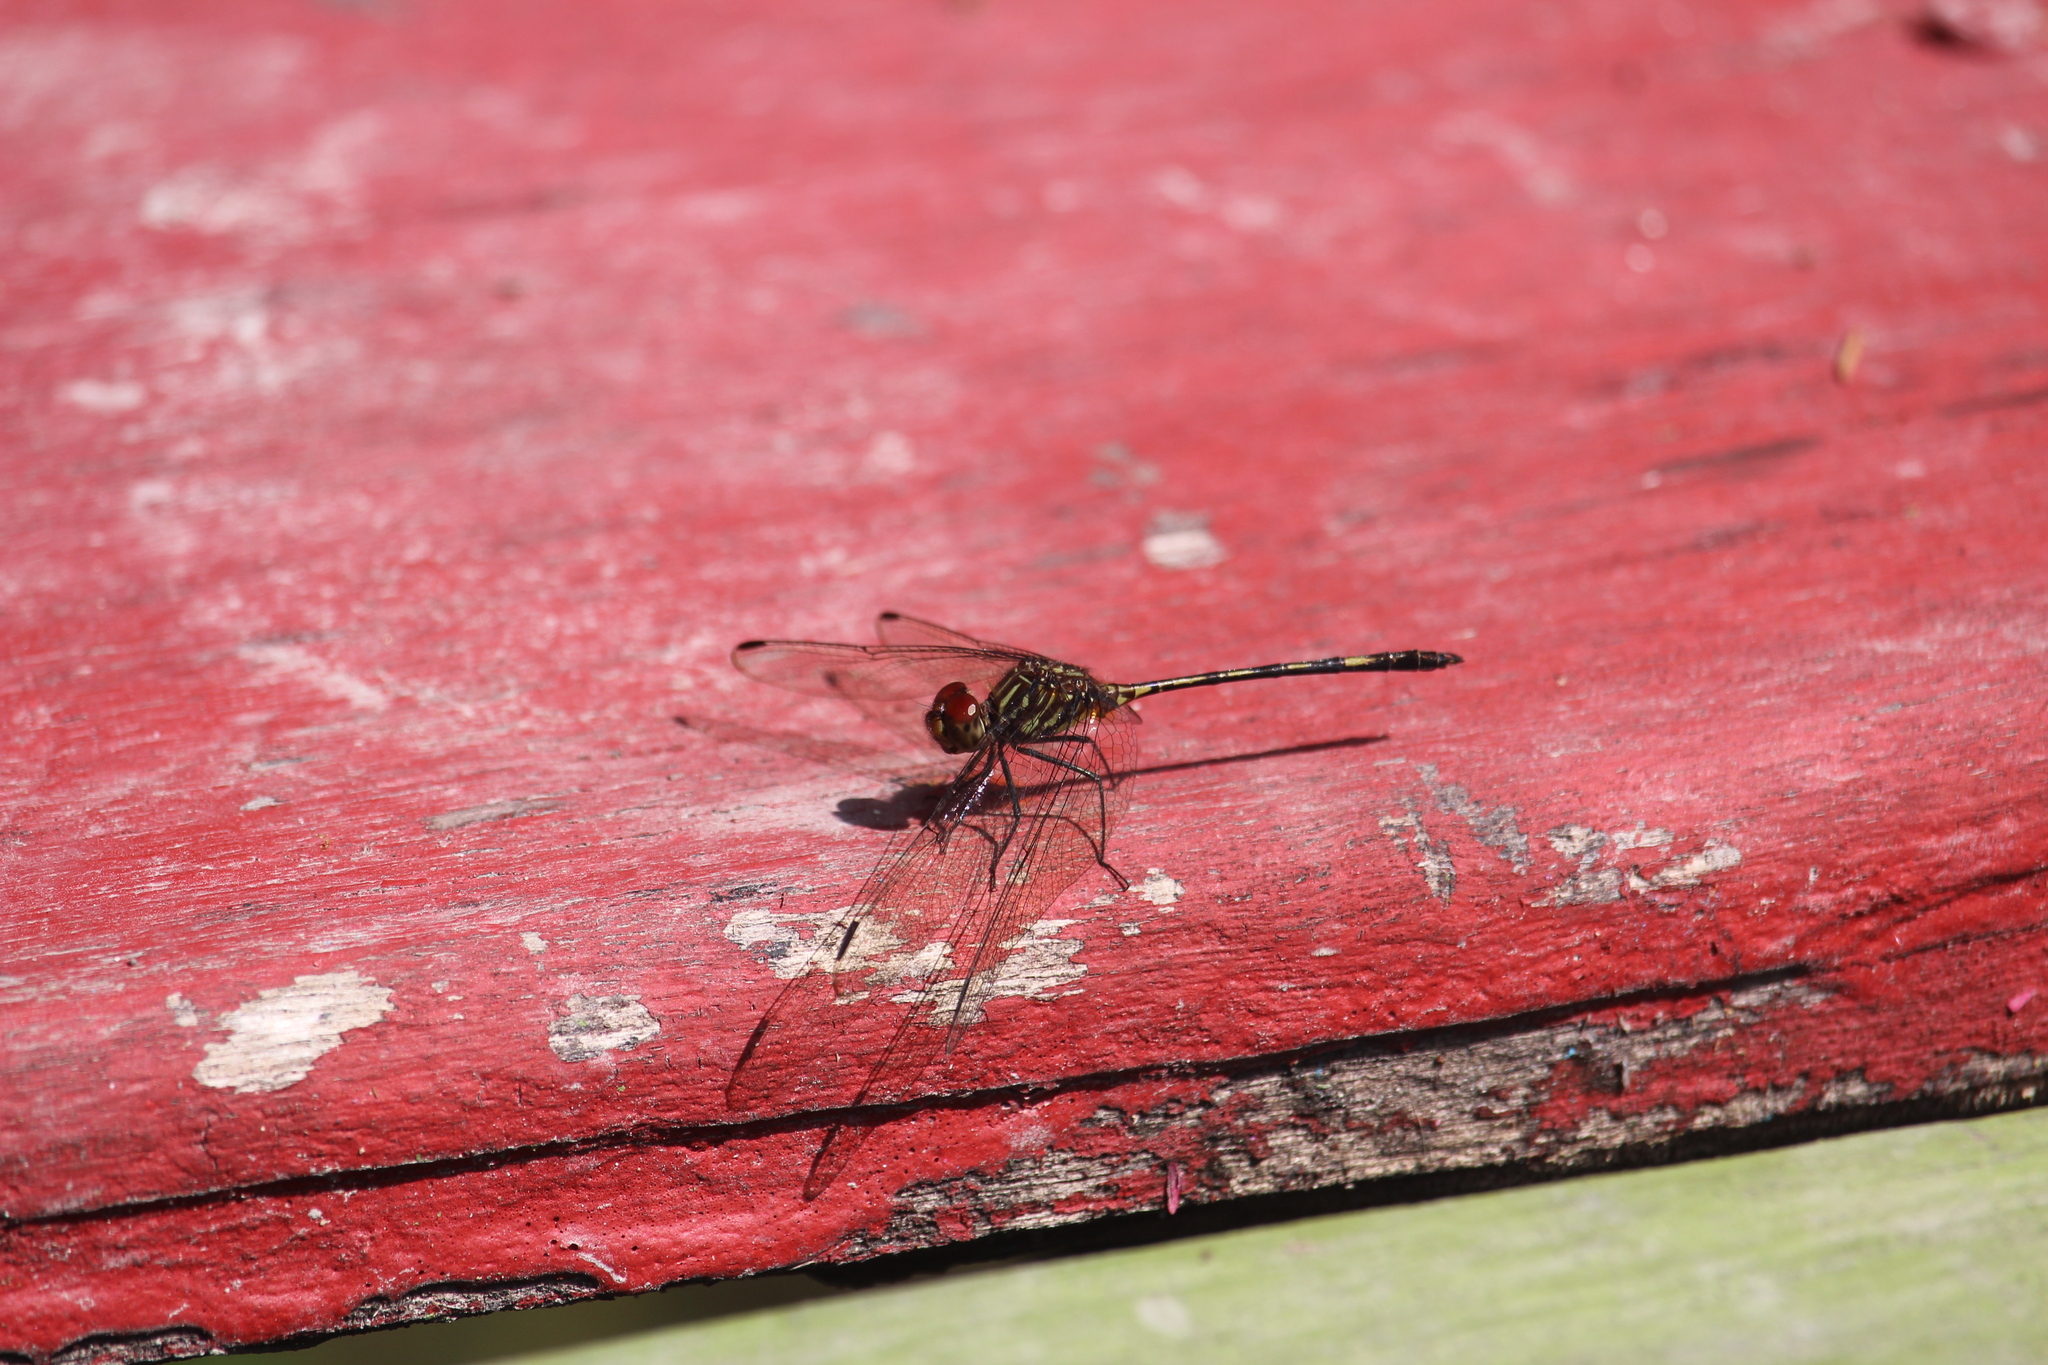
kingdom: Animalia
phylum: Arthropoda
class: Insecta
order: Odonata
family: Libellulidae
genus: Dythemis
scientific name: Dythemis sterilis
